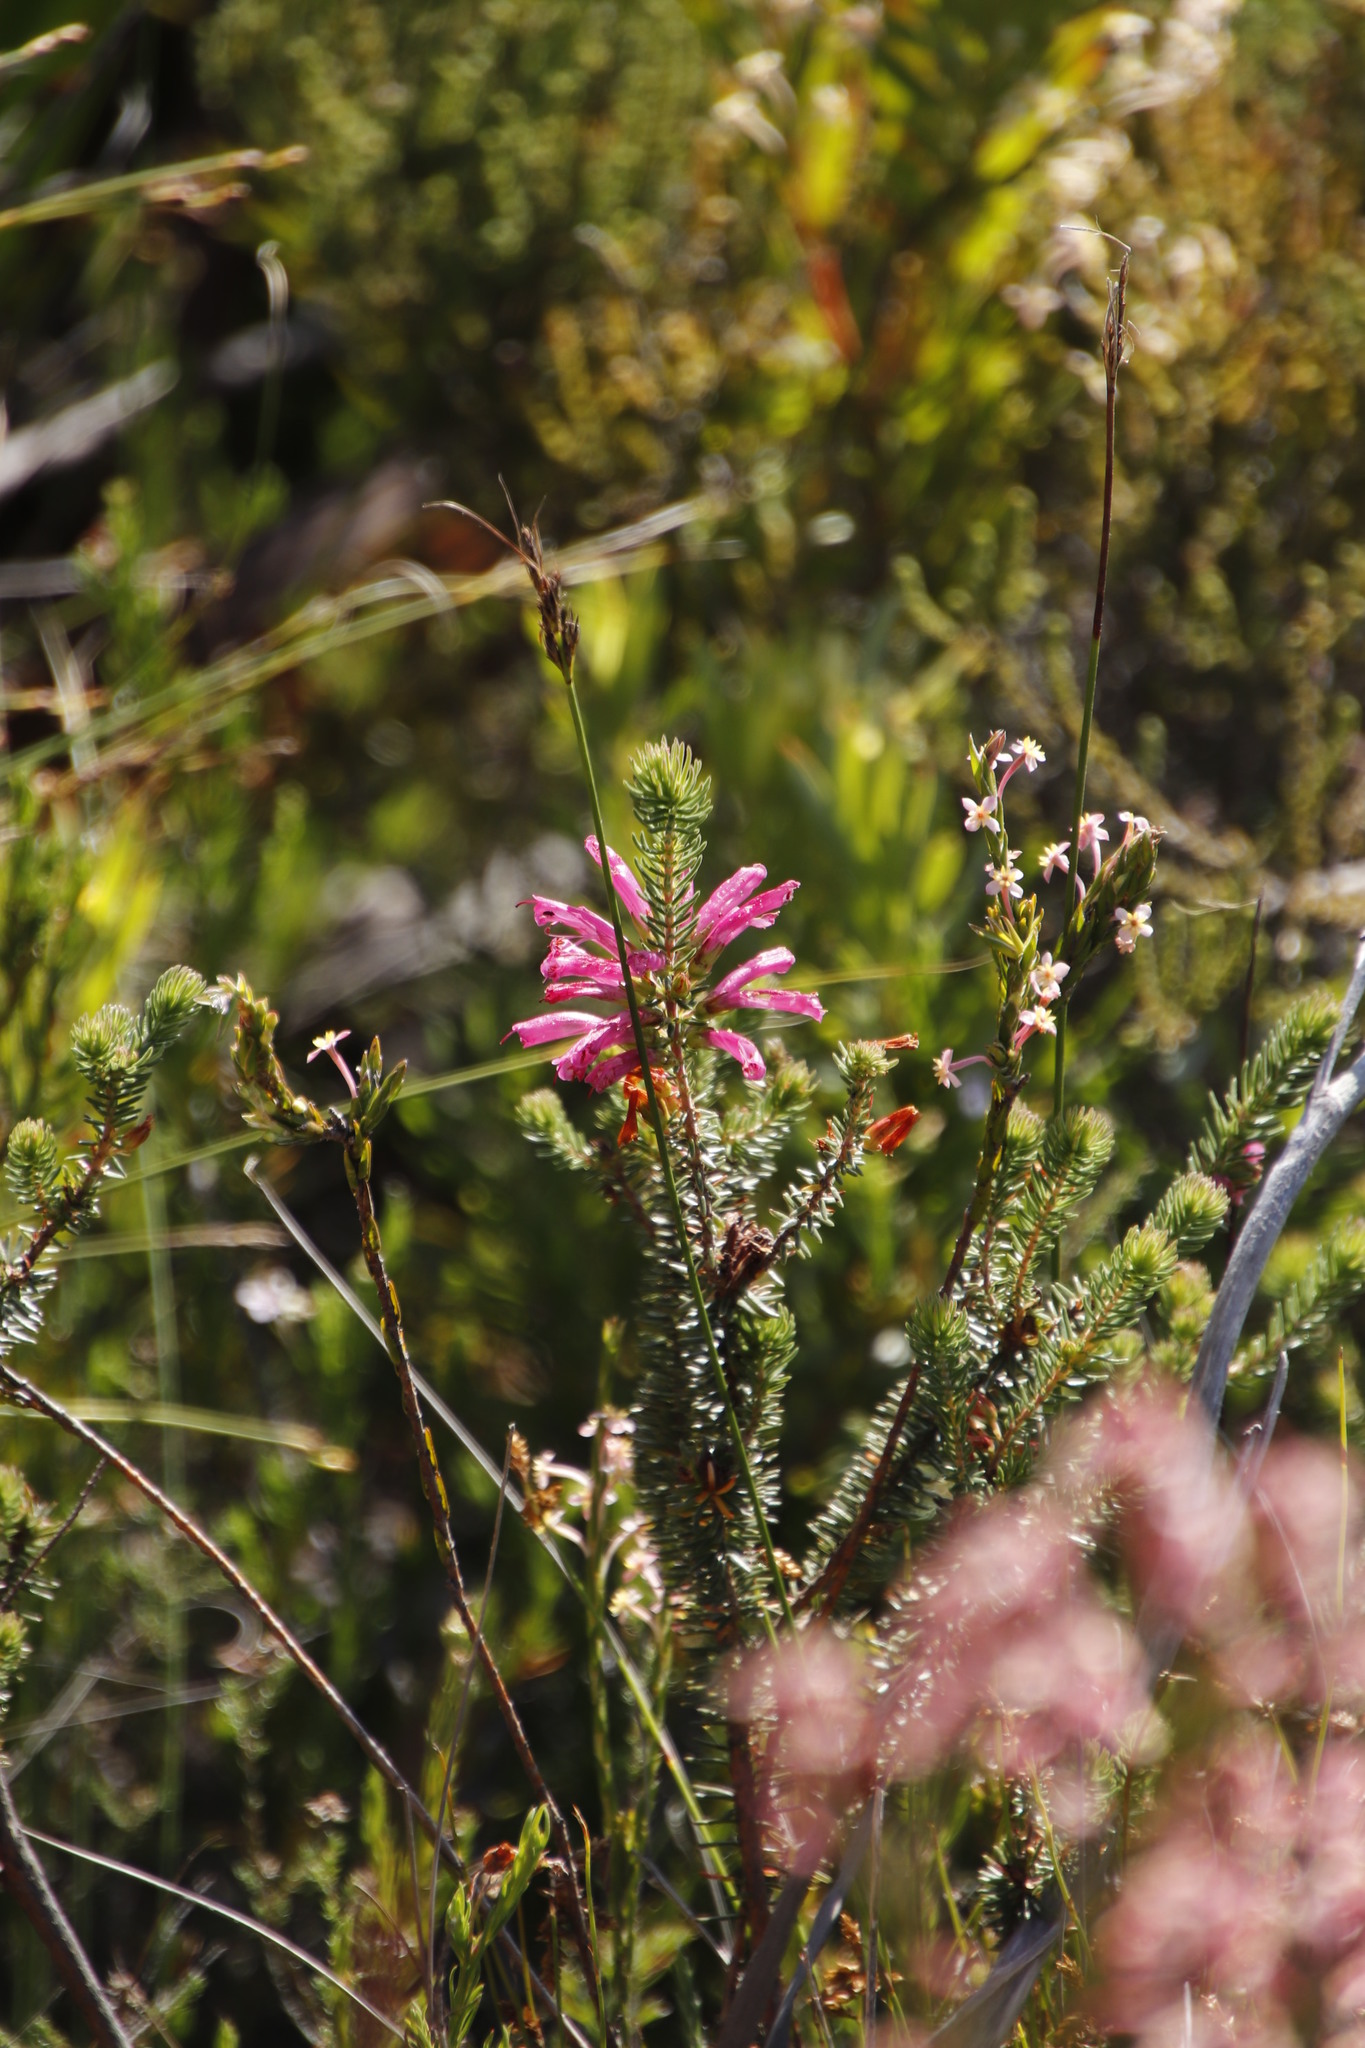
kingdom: Plantae
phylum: Tracheophyta
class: Magnoliopsida
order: Ericales
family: Ericaceae
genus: Erica
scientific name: Erica abietina
